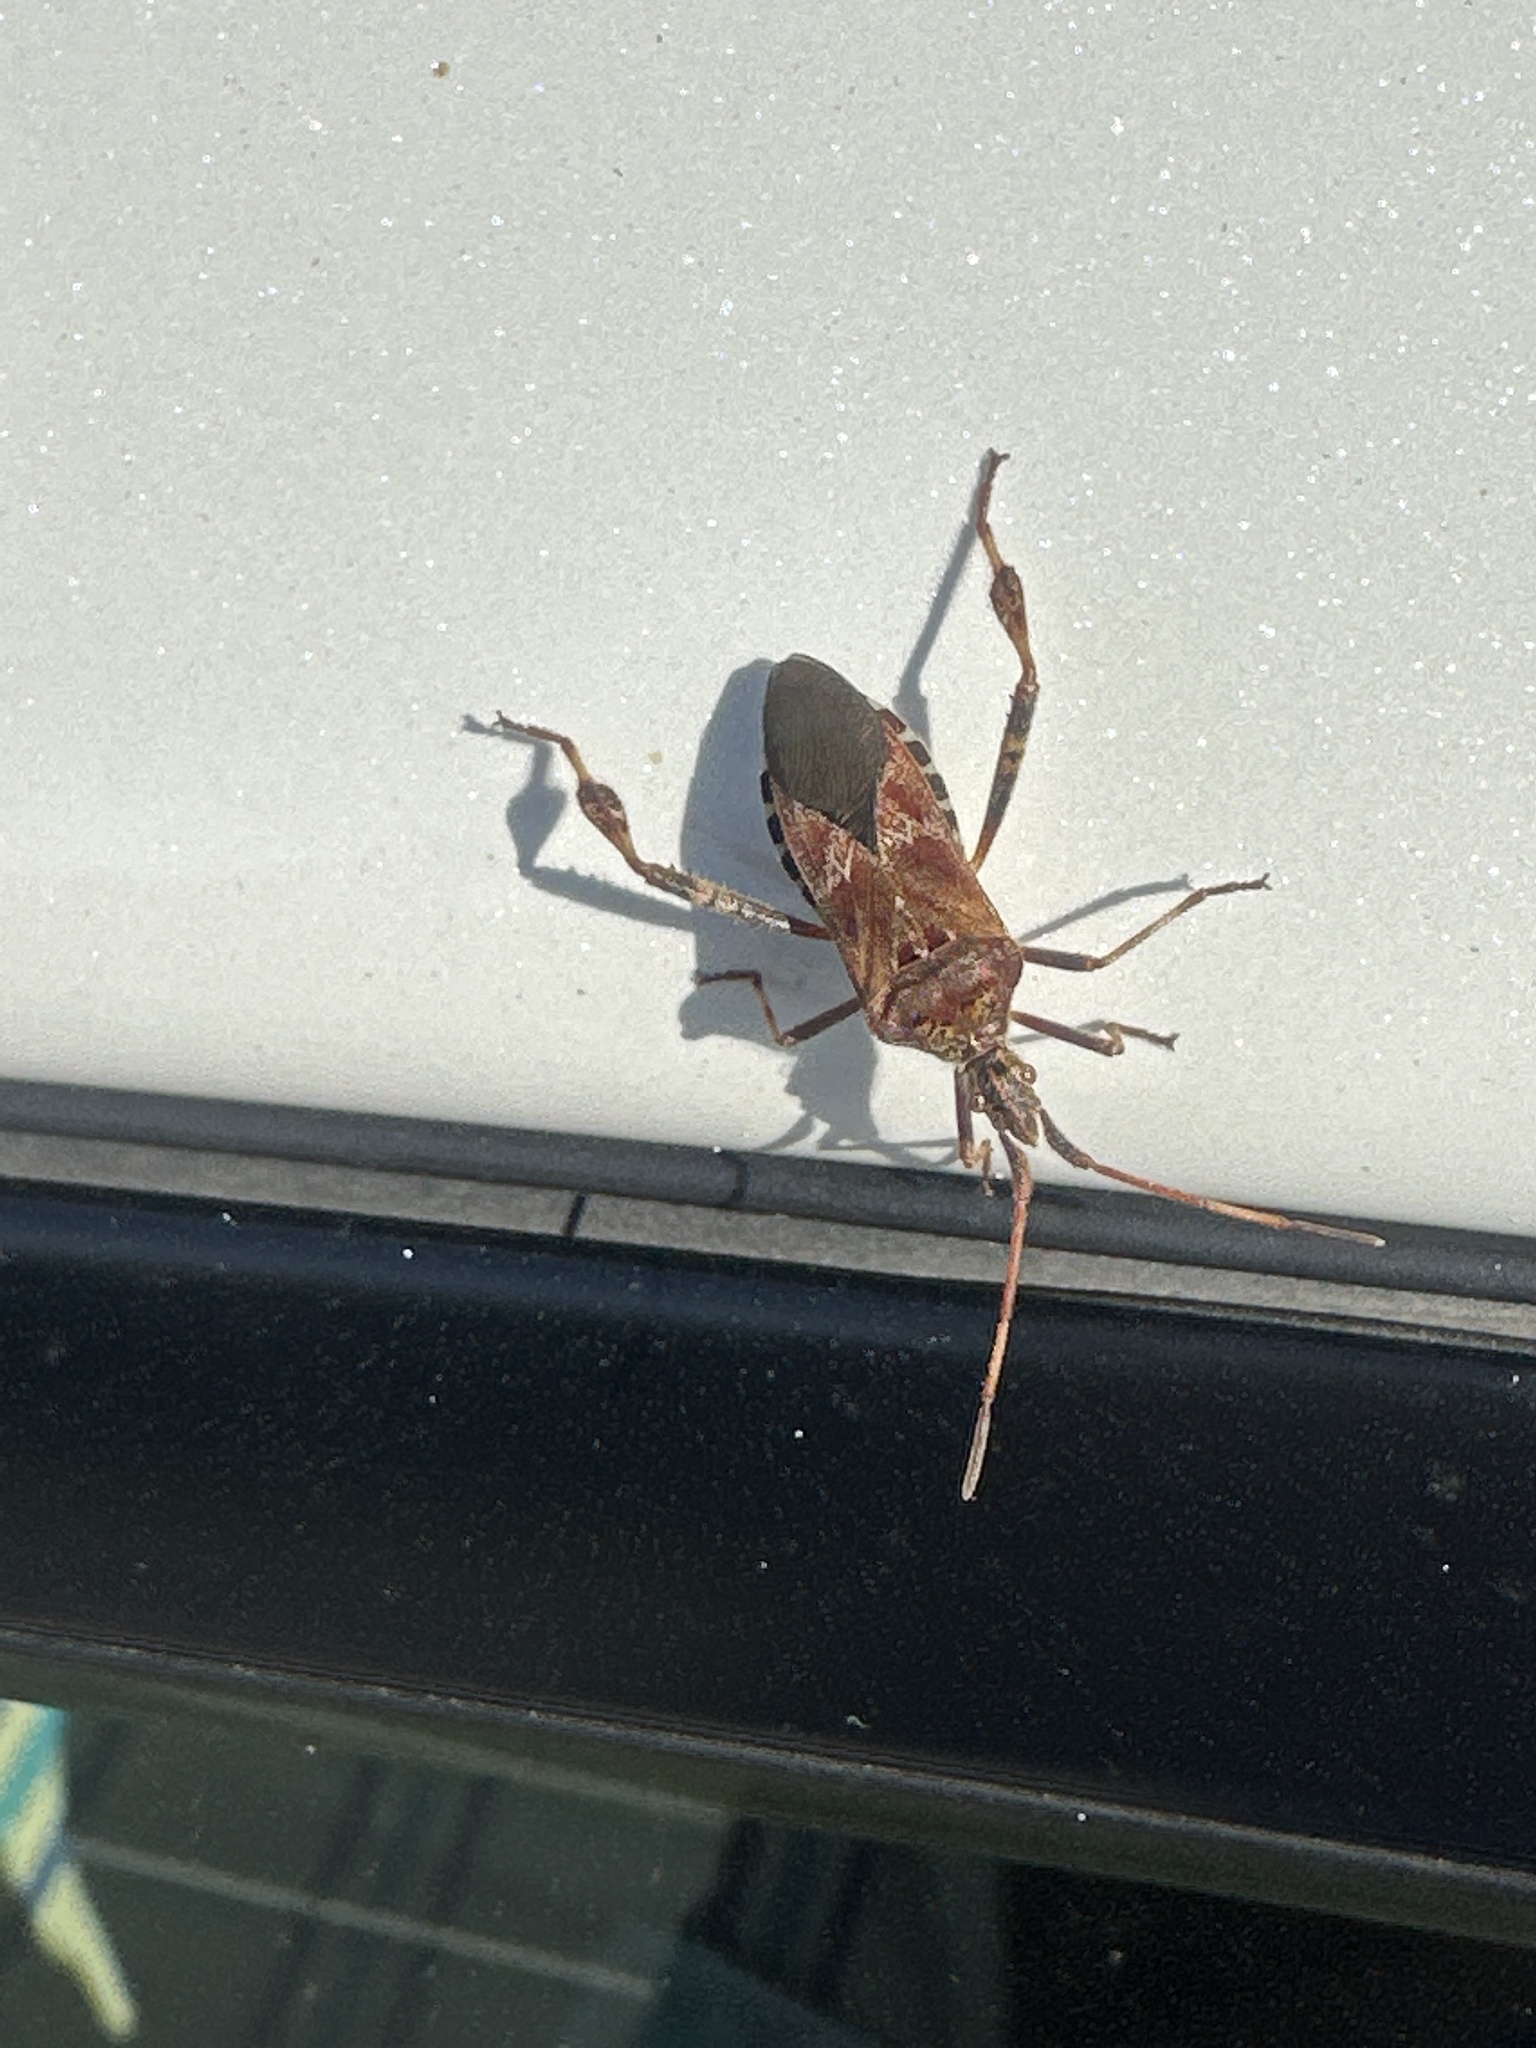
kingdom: Animalia
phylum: Arthropoda
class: Insecta
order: Hemiptera
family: Coreidae
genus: Leptoglossus
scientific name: Leptoglossus occidentalis
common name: Western conifer-seed bug
